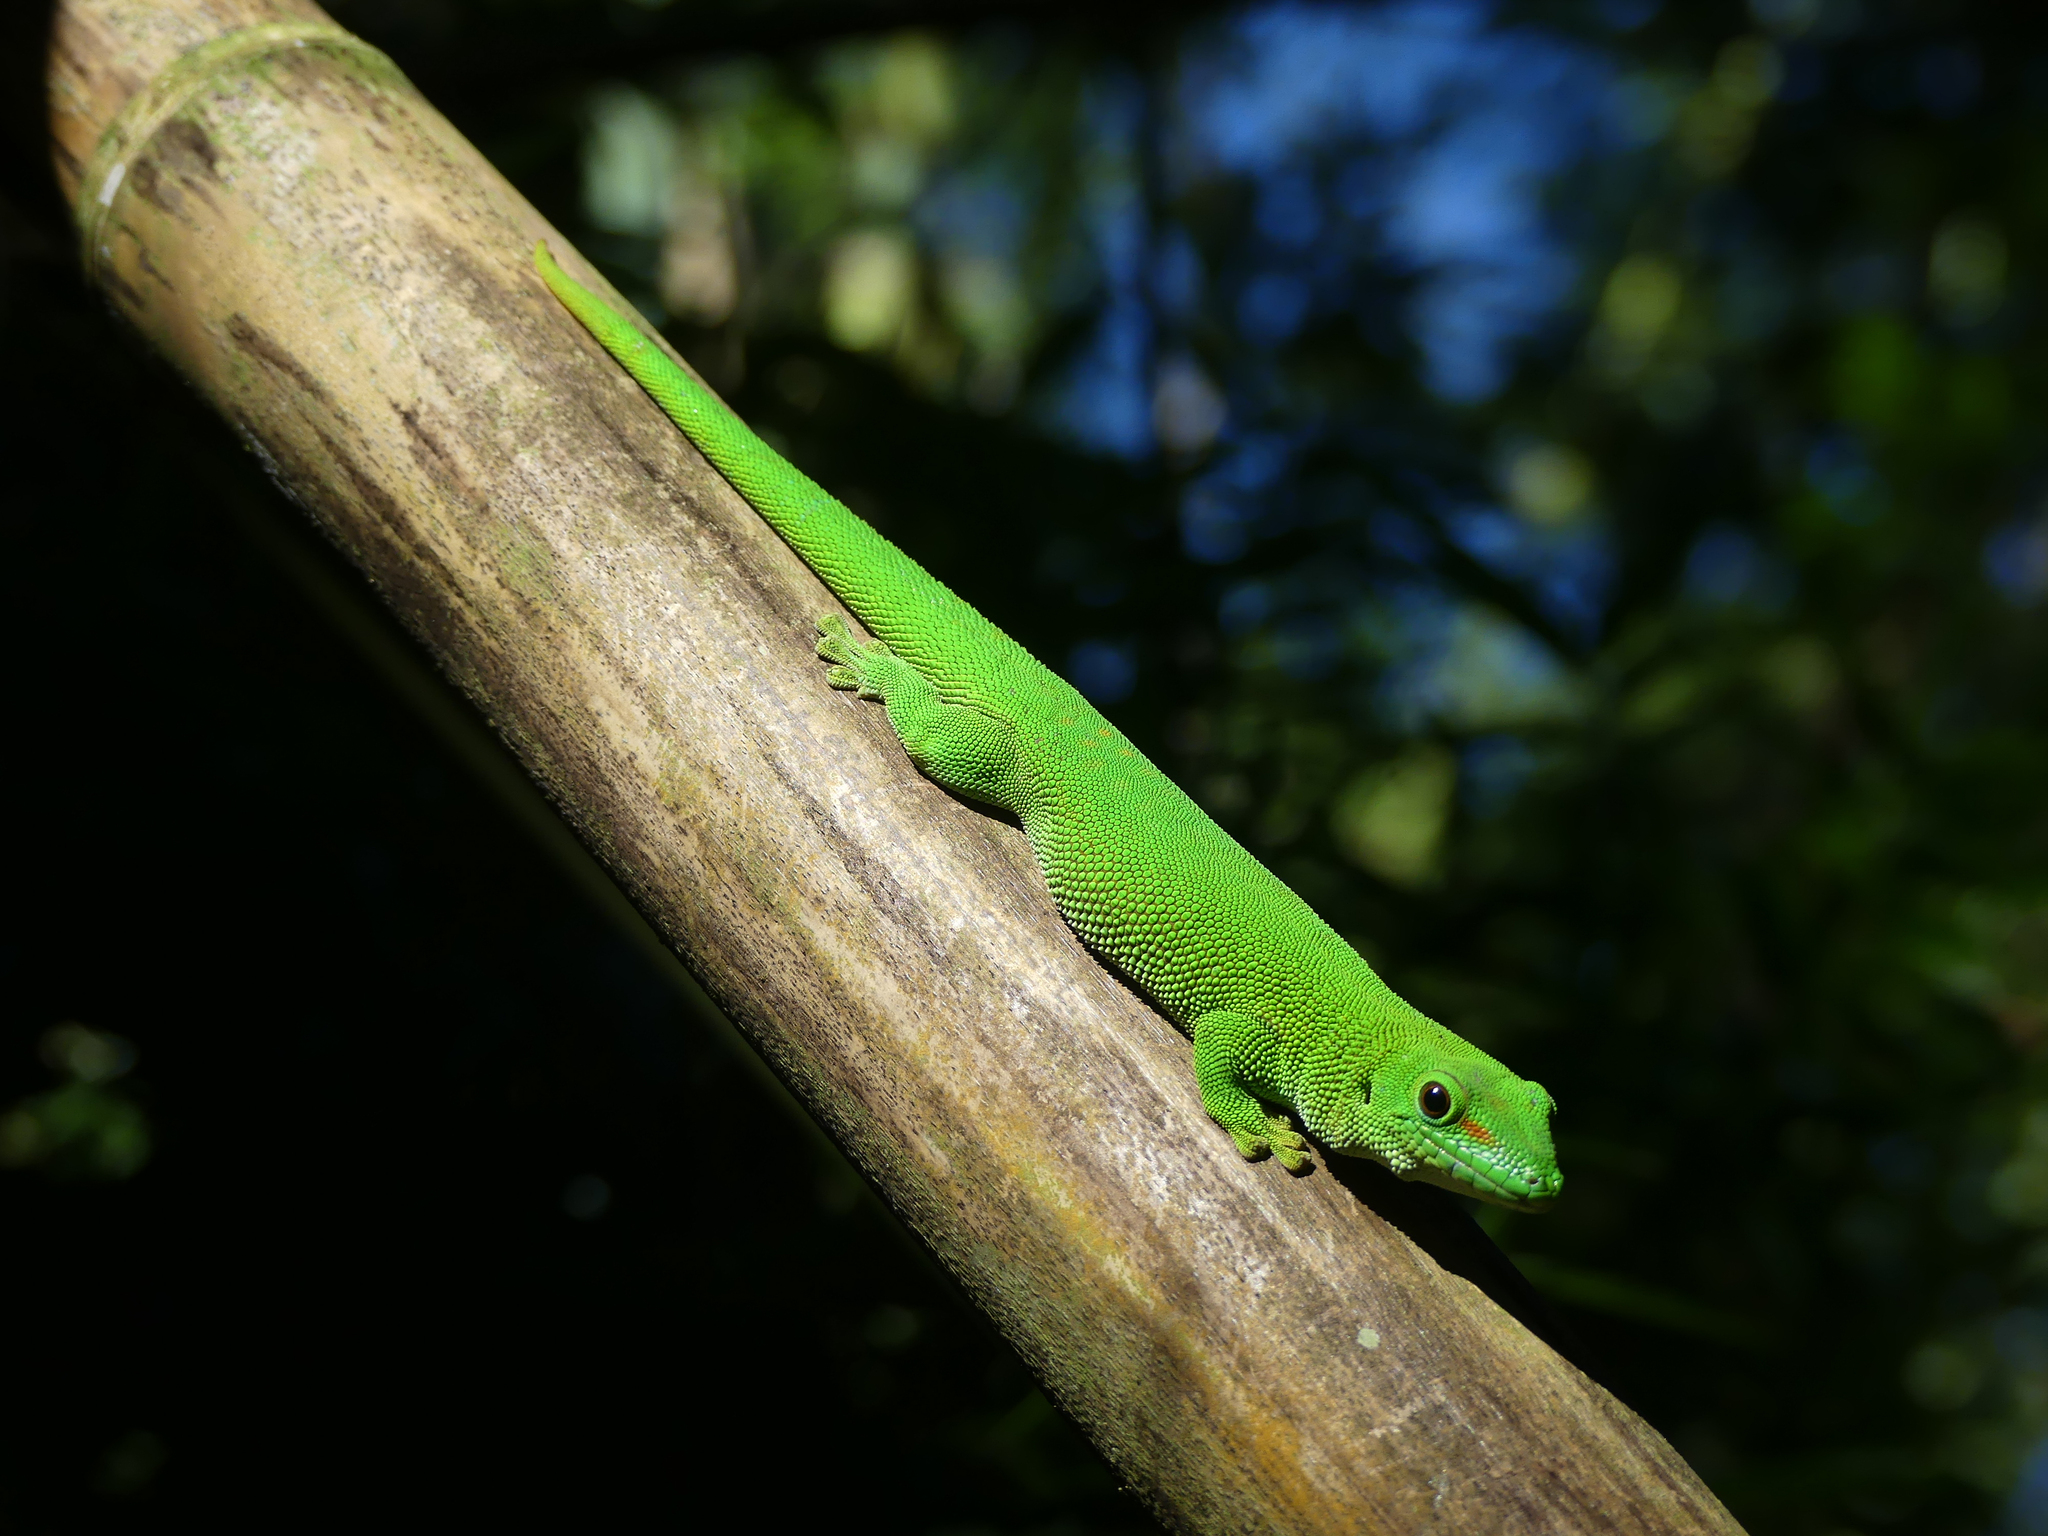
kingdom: Animalia
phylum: Chordata
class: Squamata
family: Gekkonidae
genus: Phelsuma
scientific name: Phelsuma grandis
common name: Madagascar giant day gecko
